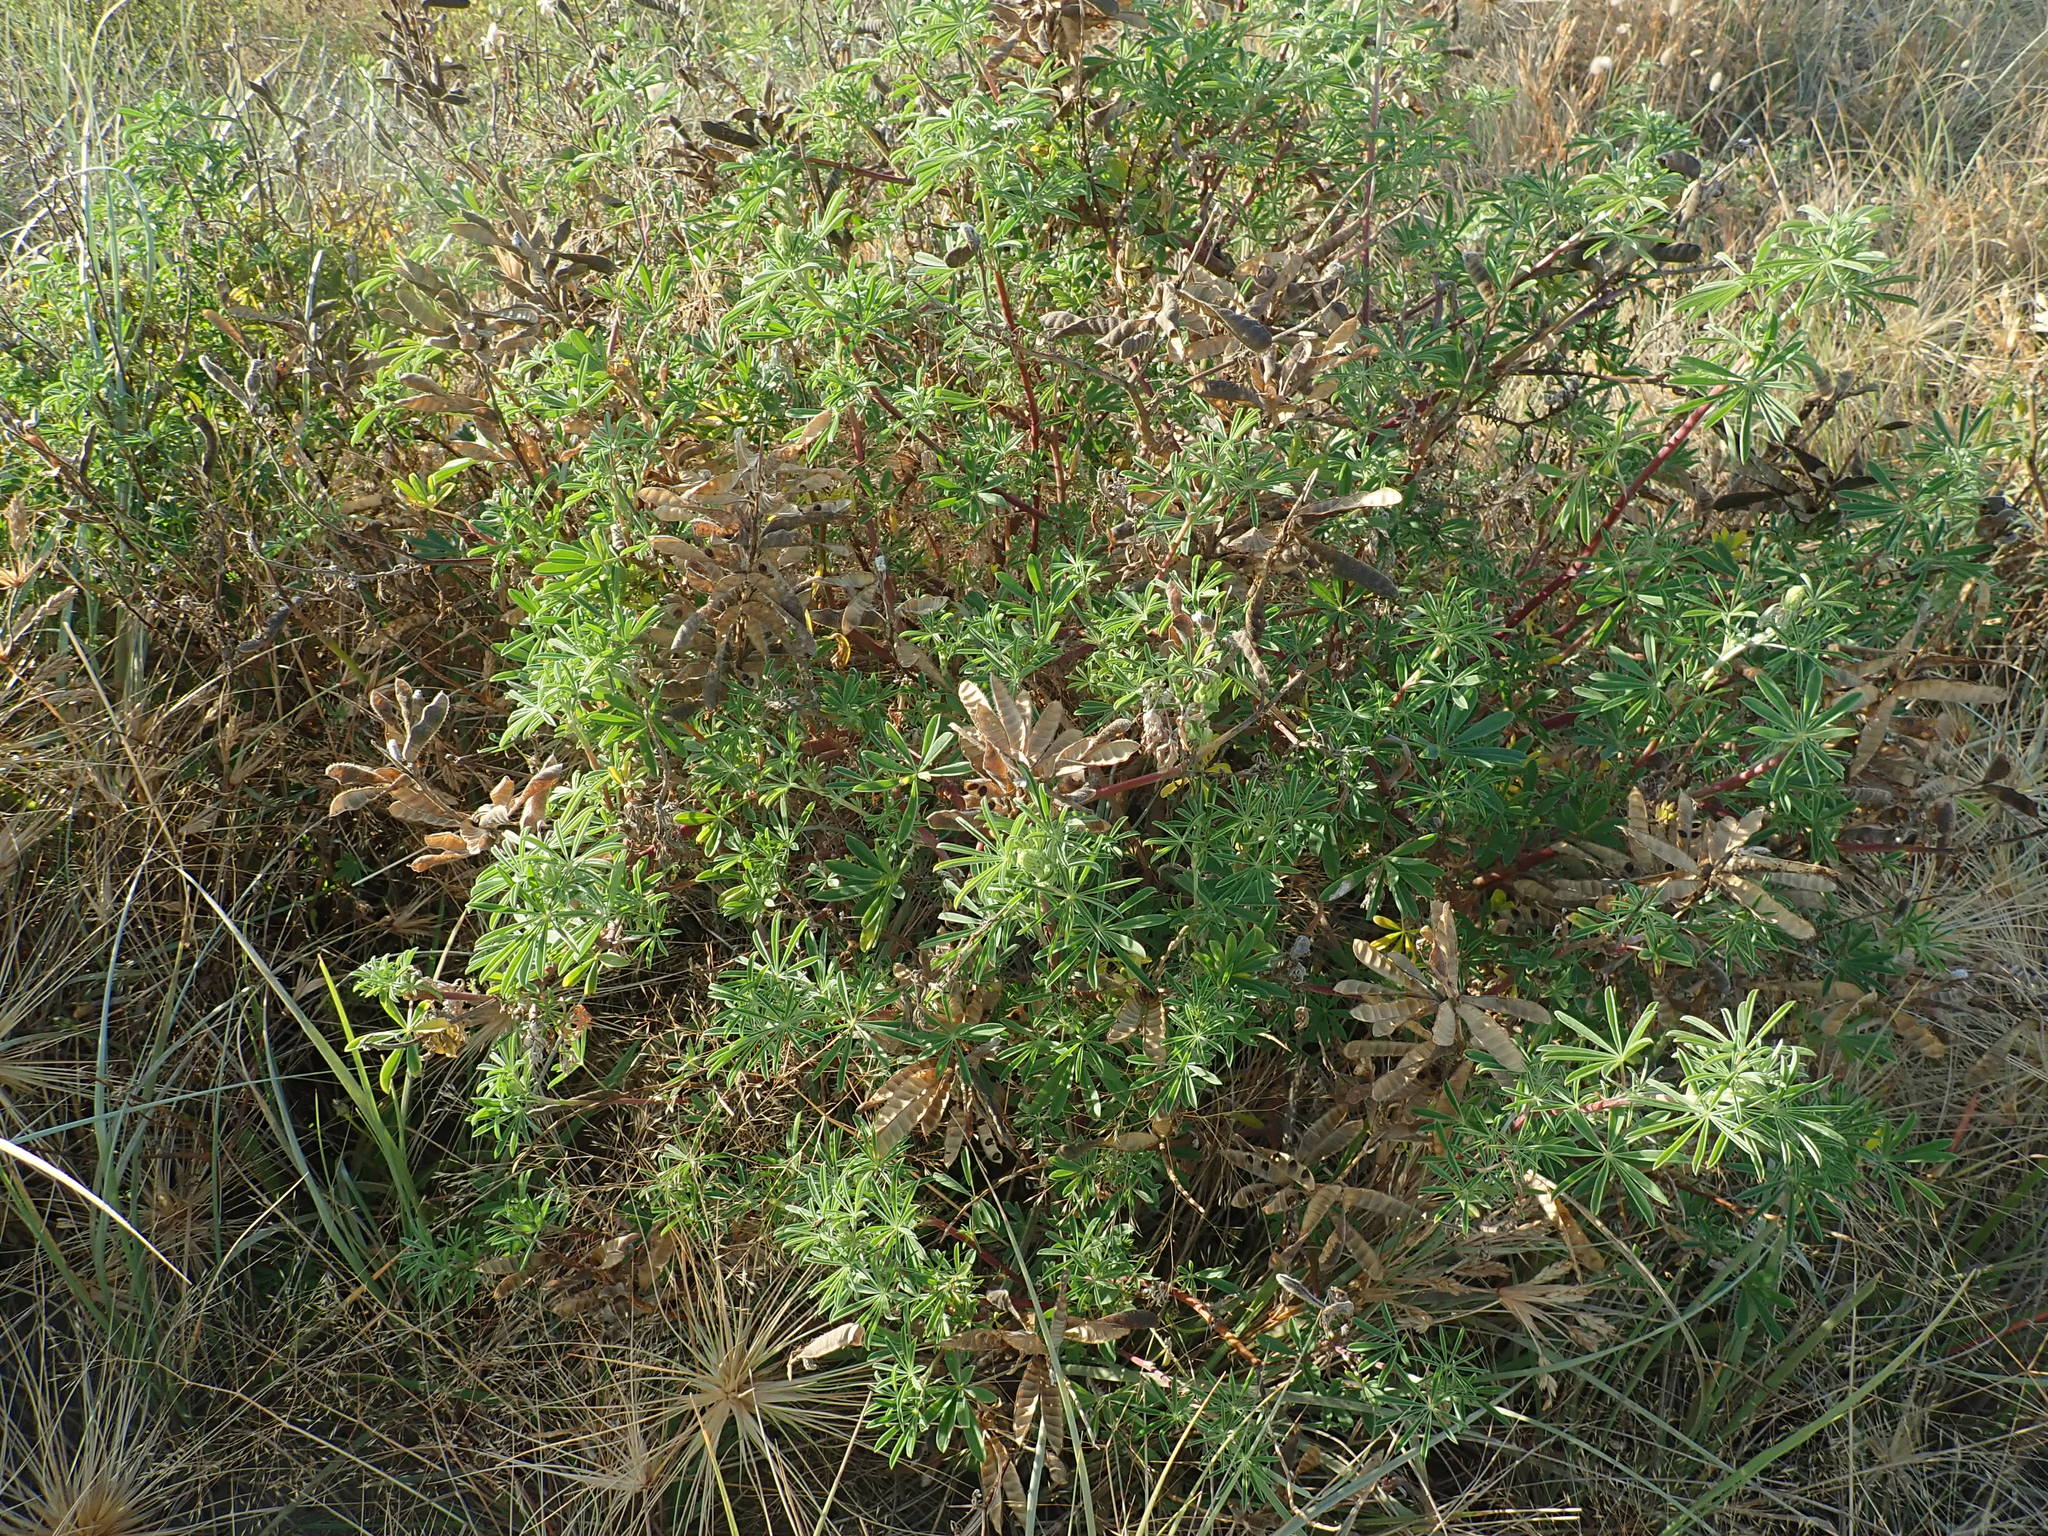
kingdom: Plantae
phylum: Tracheophyta
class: Magnoliopsida
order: Fabales
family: Fabaceae
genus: Lupinus
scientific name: Lupinus arboreus
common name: Yellow bush lupine
